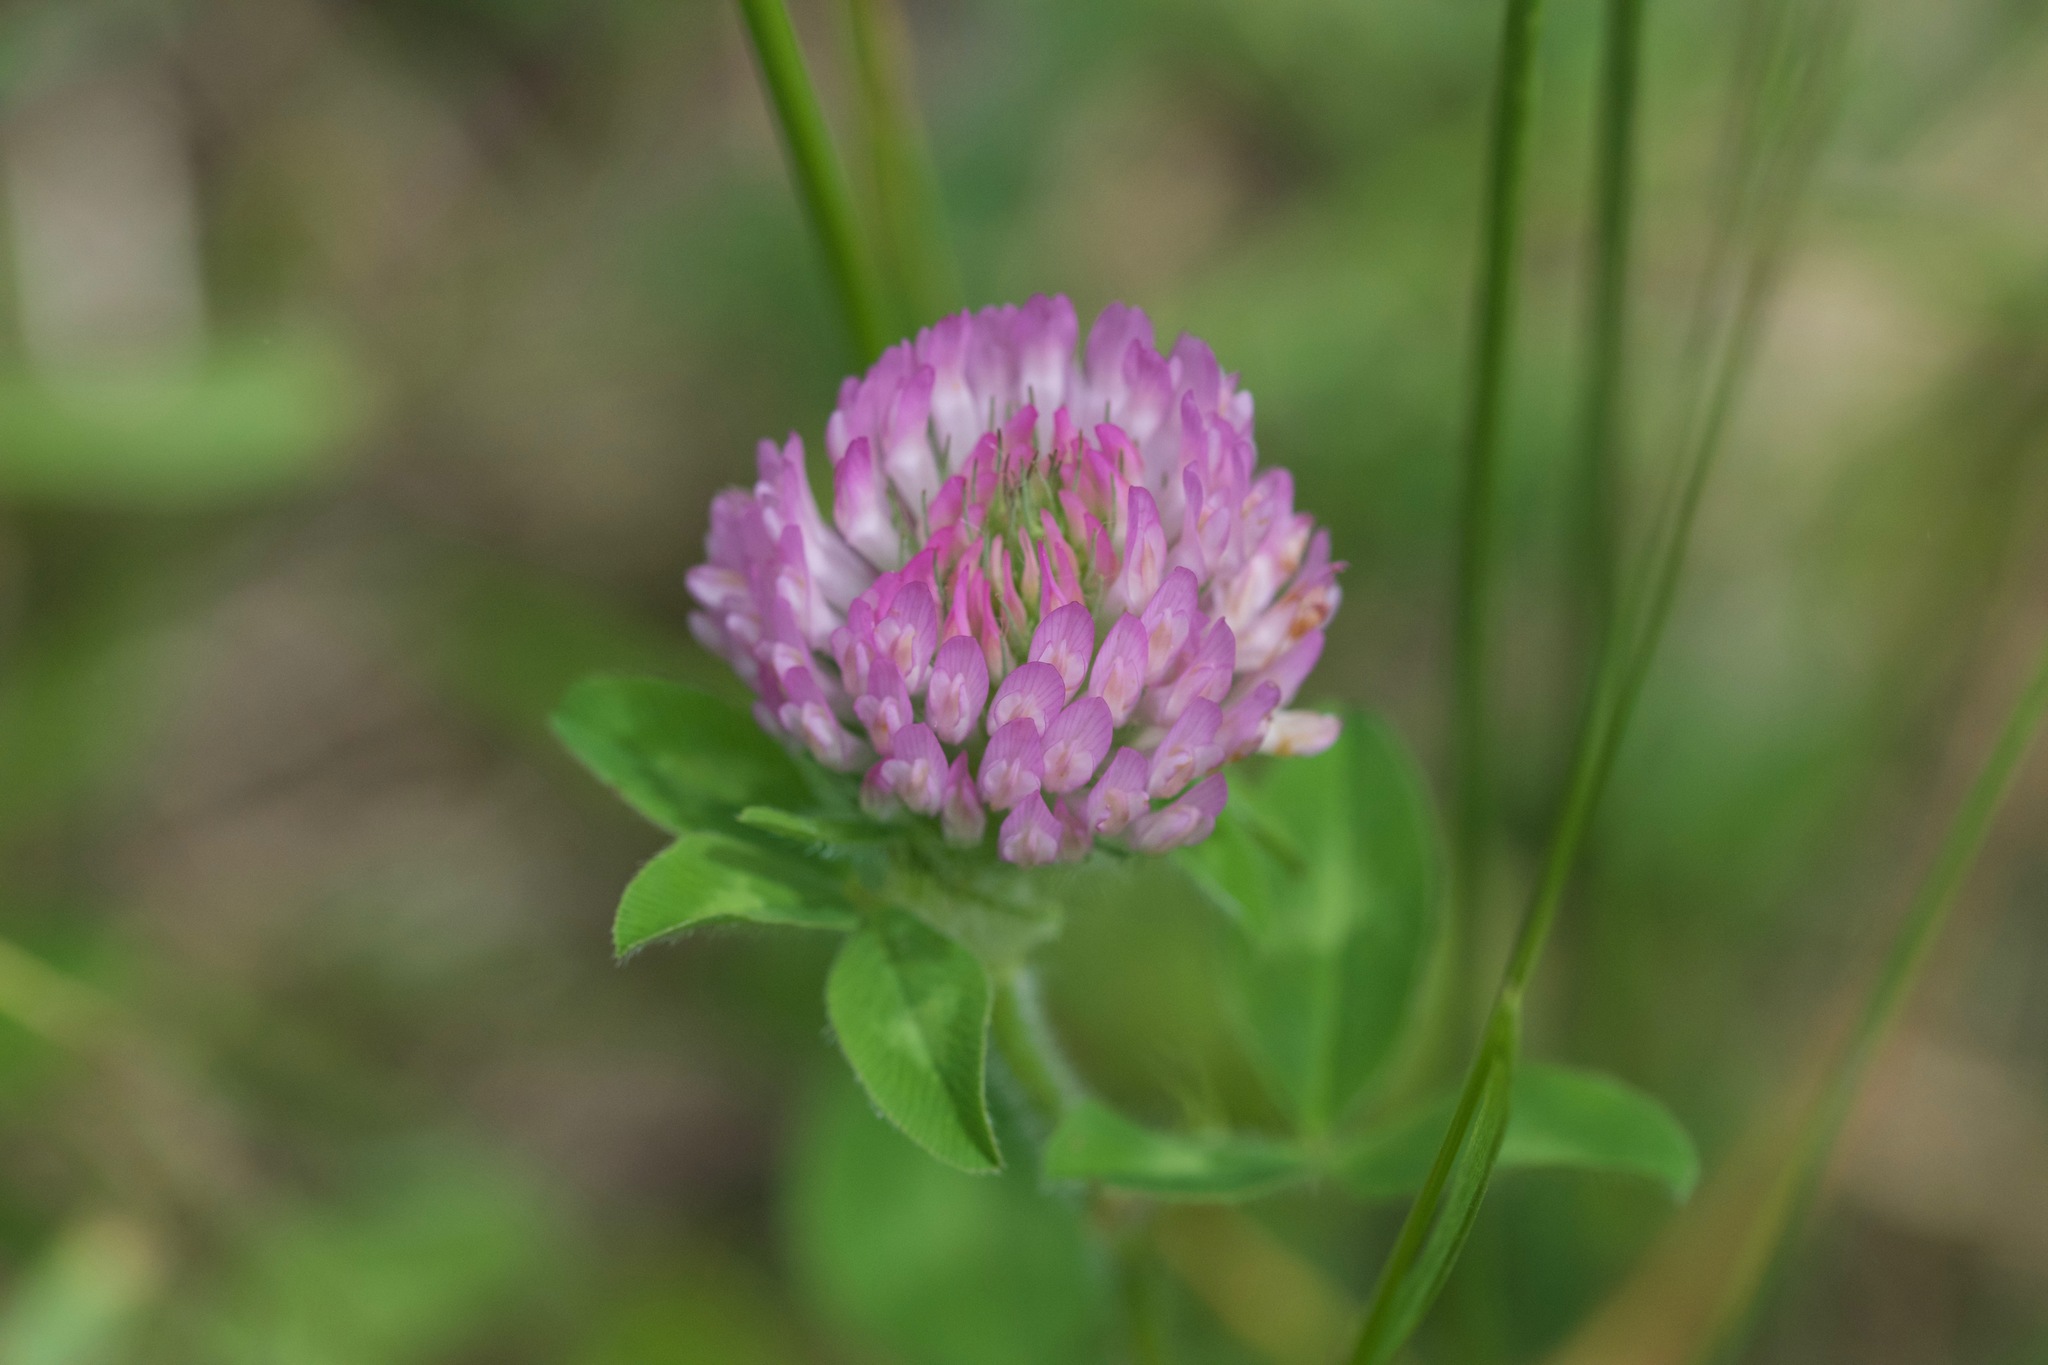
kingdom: Plantae
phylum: Tracheophyta
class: Magnoliopsida
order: Fabales
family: Fabaceae
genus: Trifolium
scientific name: Trifolium pratense
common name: Red clover
